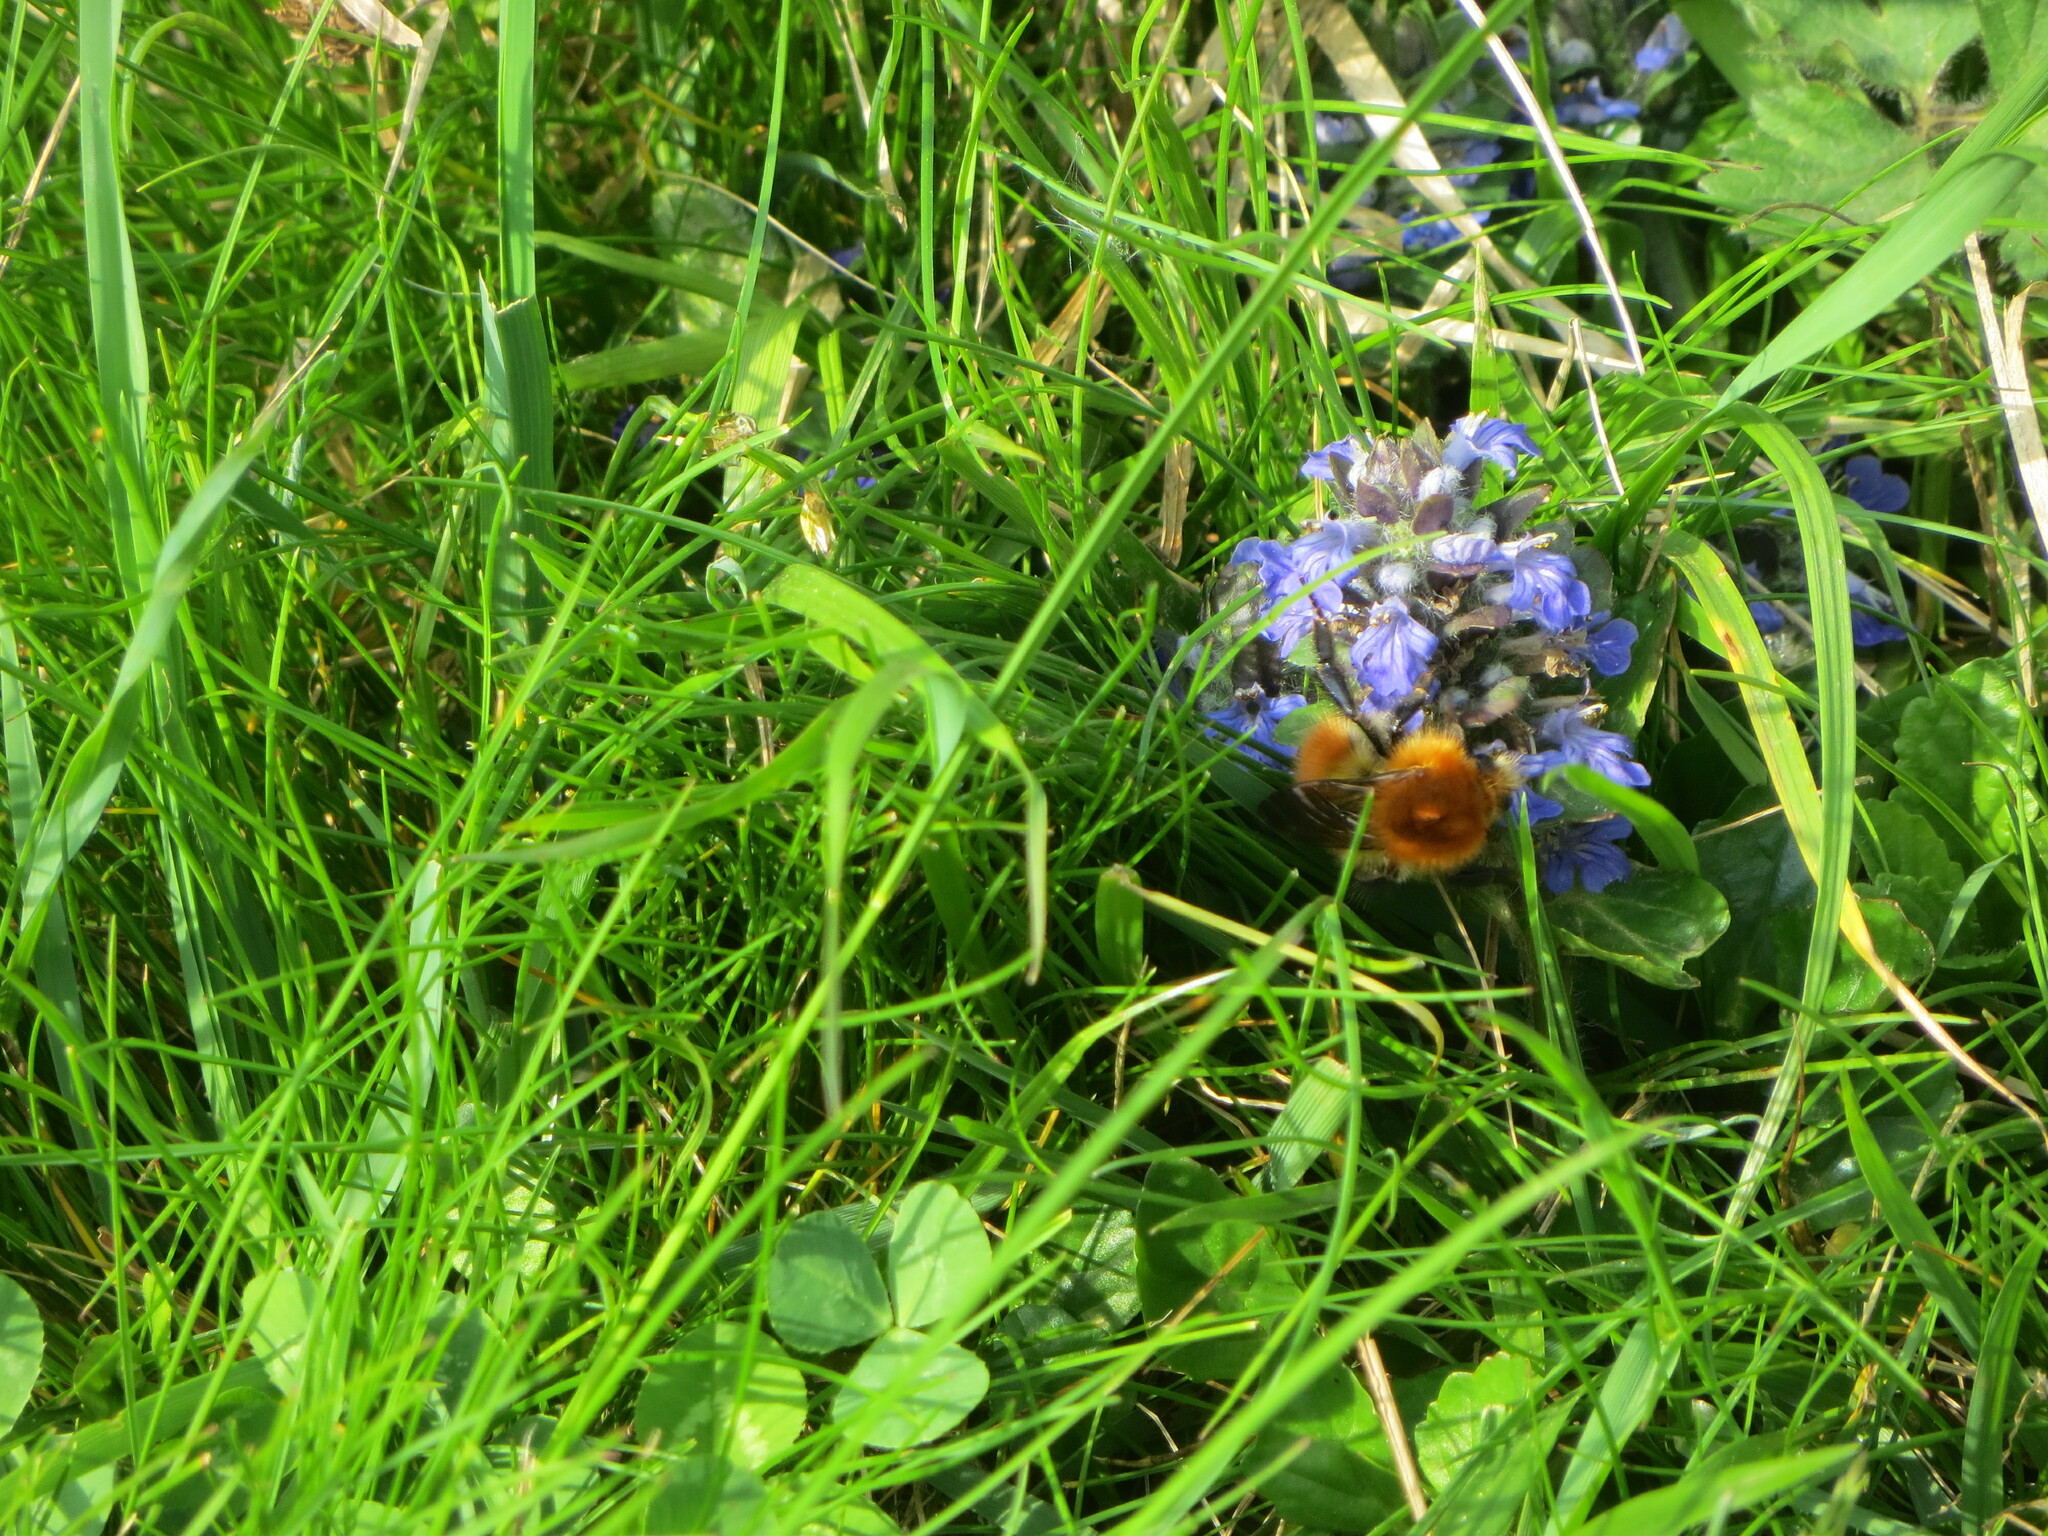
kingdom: Animalia
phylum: Arthropoda
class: Insecta
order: Hymenoptera
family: Apidae
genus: Bombus
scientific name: Bombus pascuorum
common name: Common carder bee
